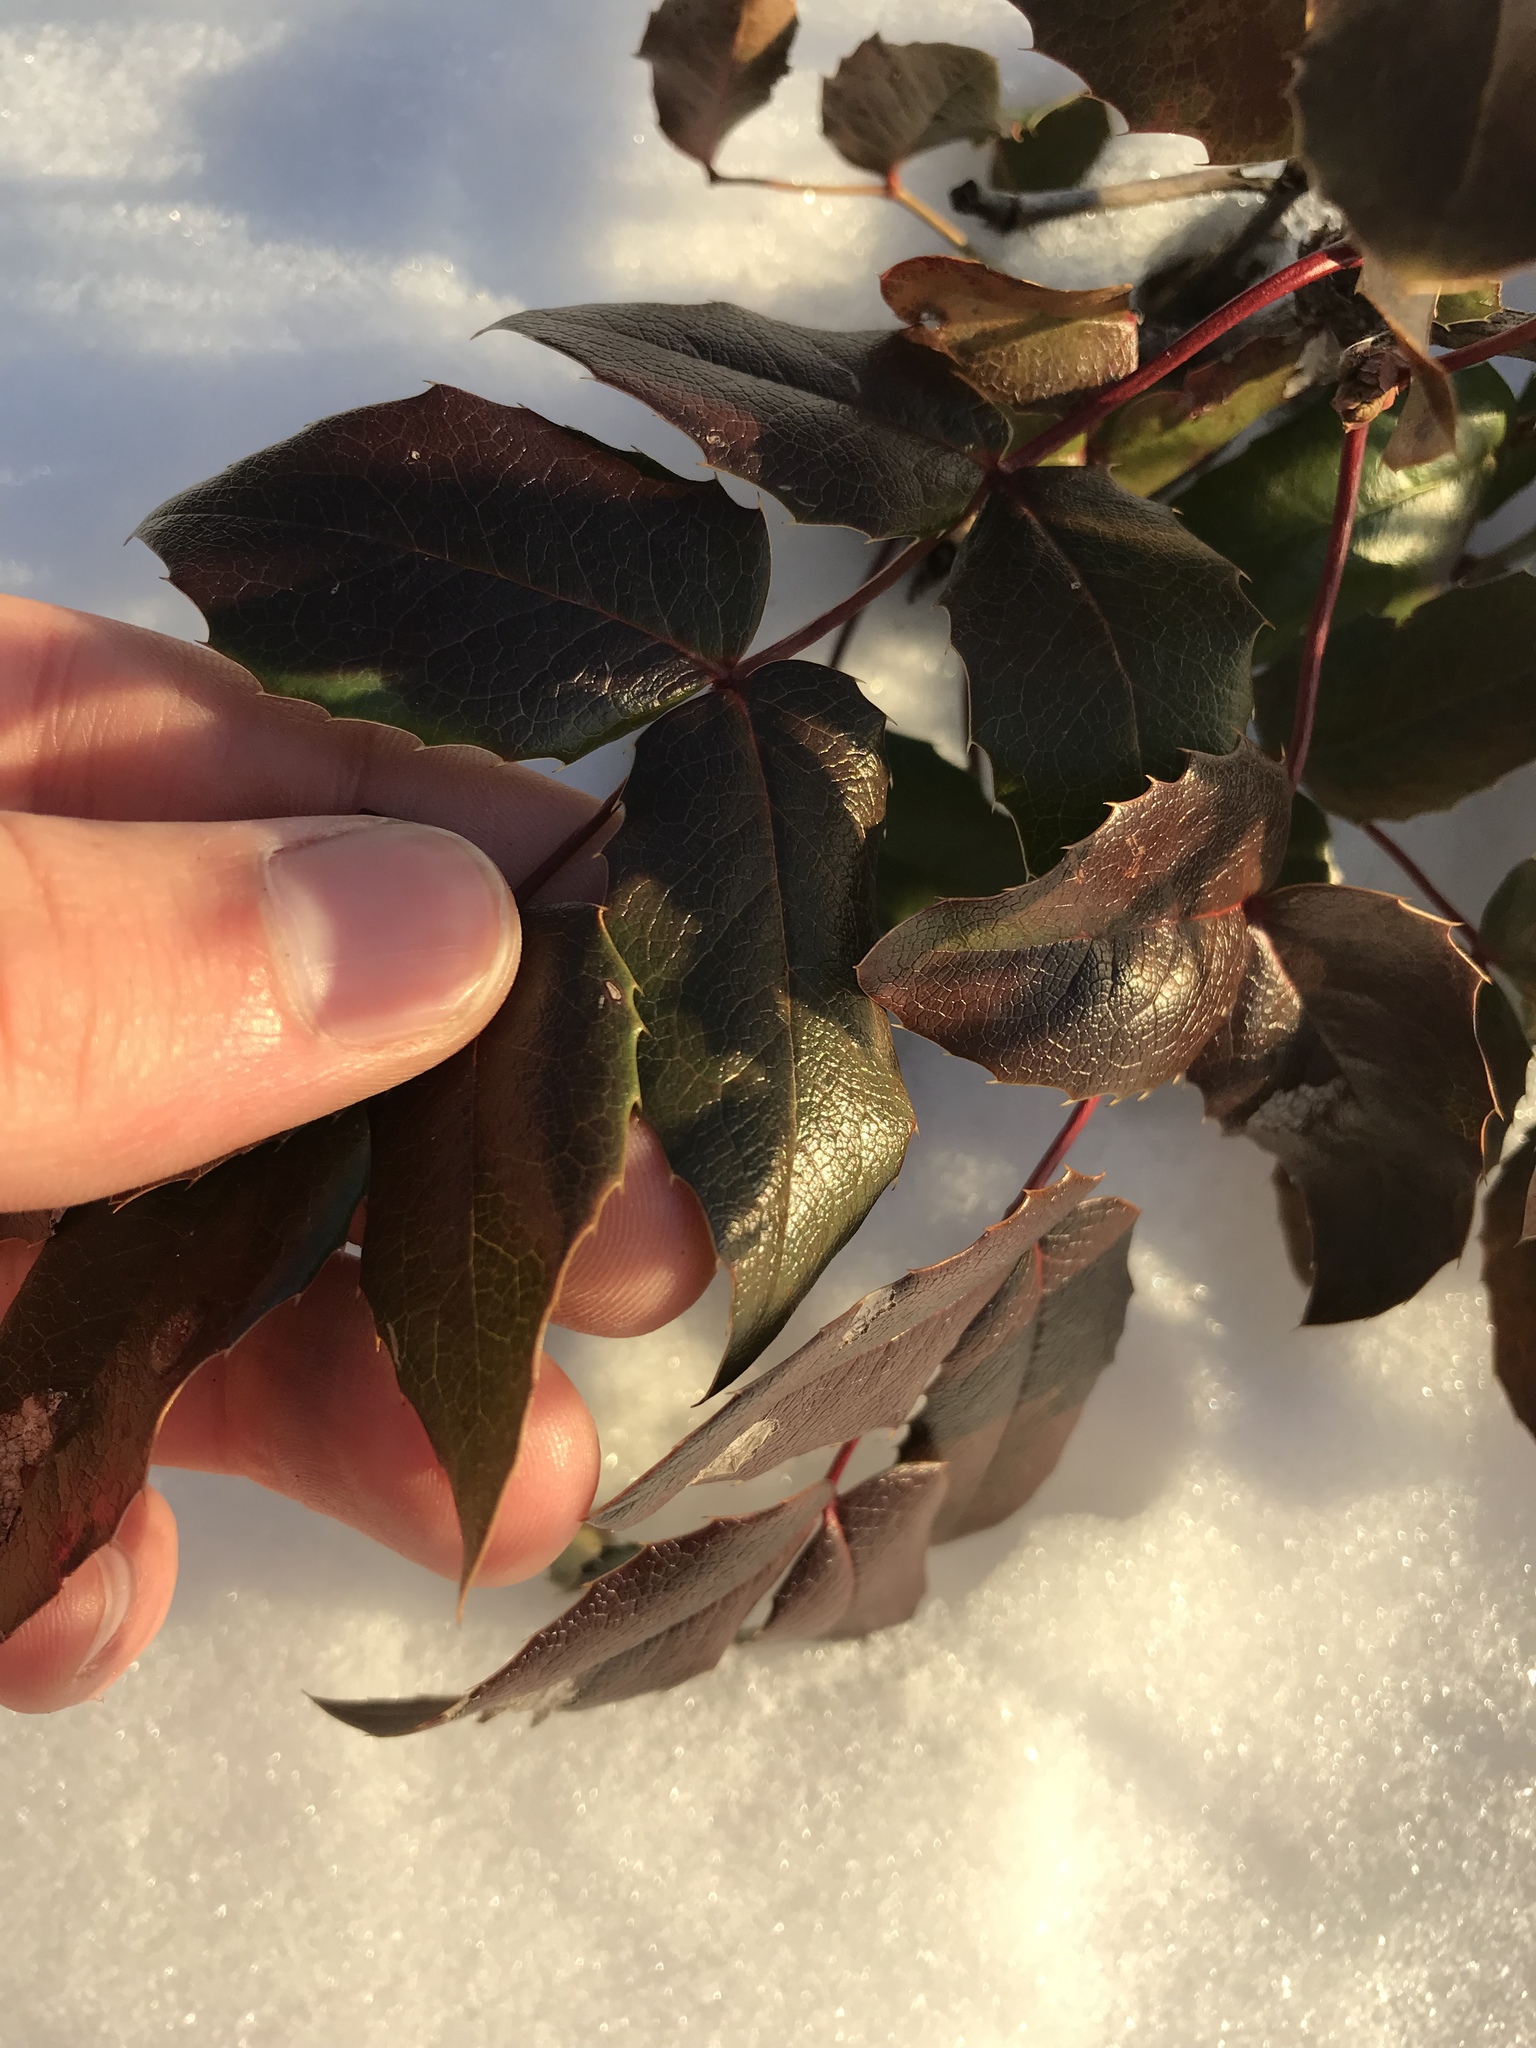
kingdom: Plantae
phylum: Tracheophyta
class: Magnoliopsida
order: Ranunculales
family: Berberidaceae
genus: Mahonia
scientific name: Mahonia aquifolium
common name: Oregon-grape
